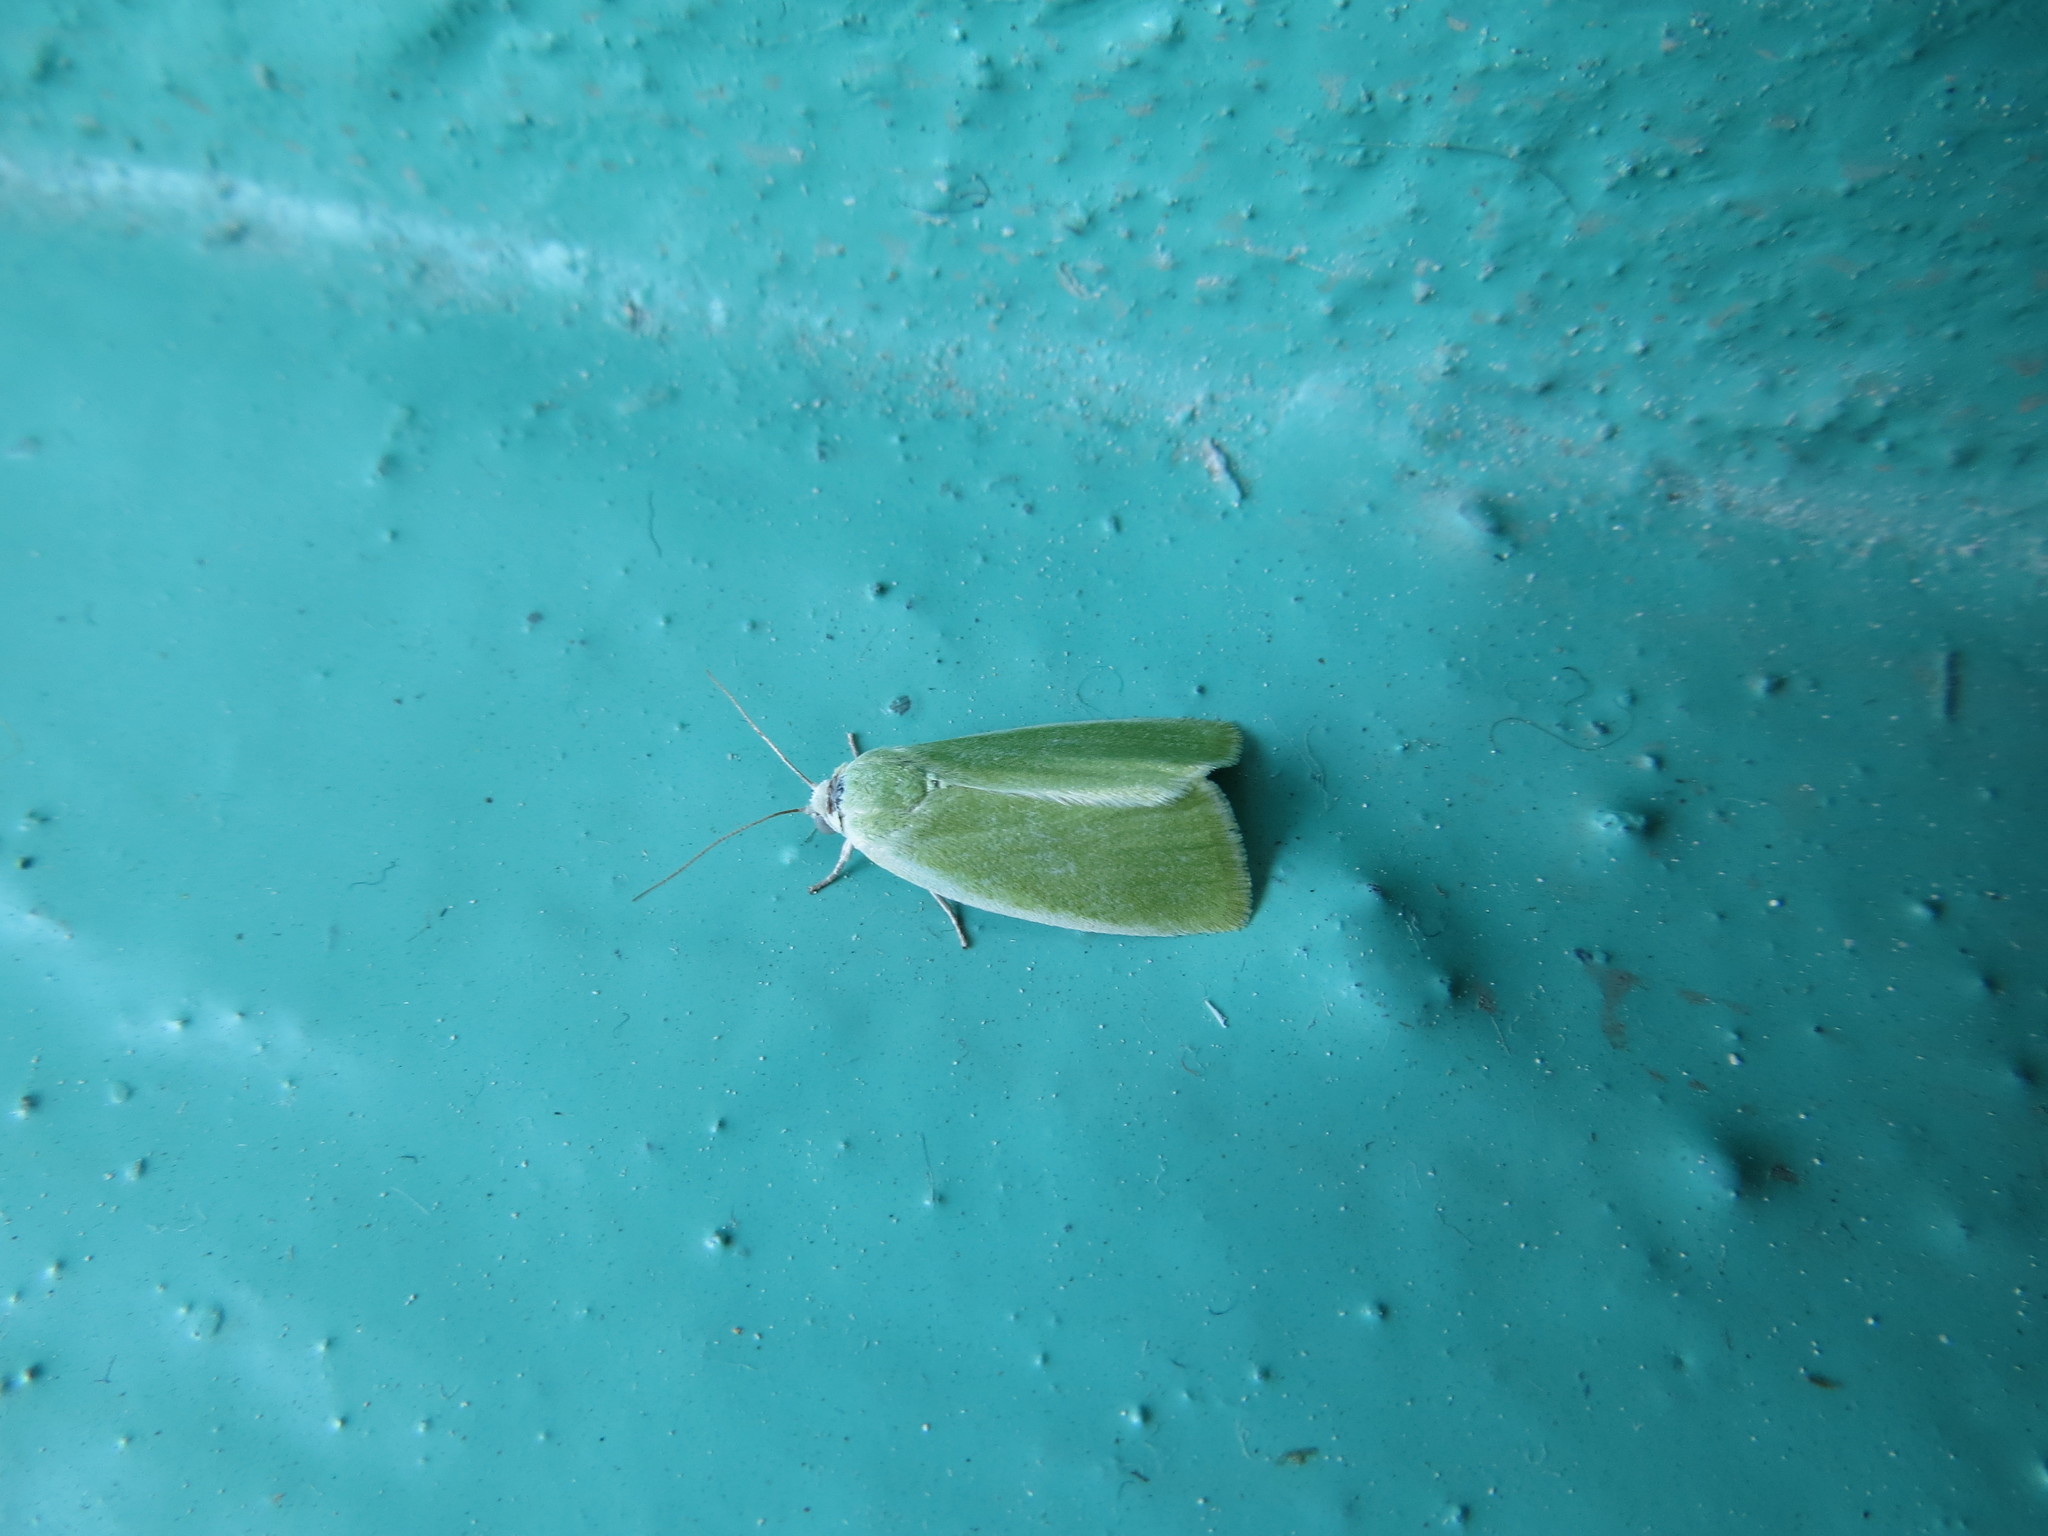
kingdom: Animalia
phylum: Arthropoda
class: Insecta
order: Lepidoptera
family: Nolidae
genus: Earias
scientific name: Earias clorana
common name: Cream-bordered green pea
